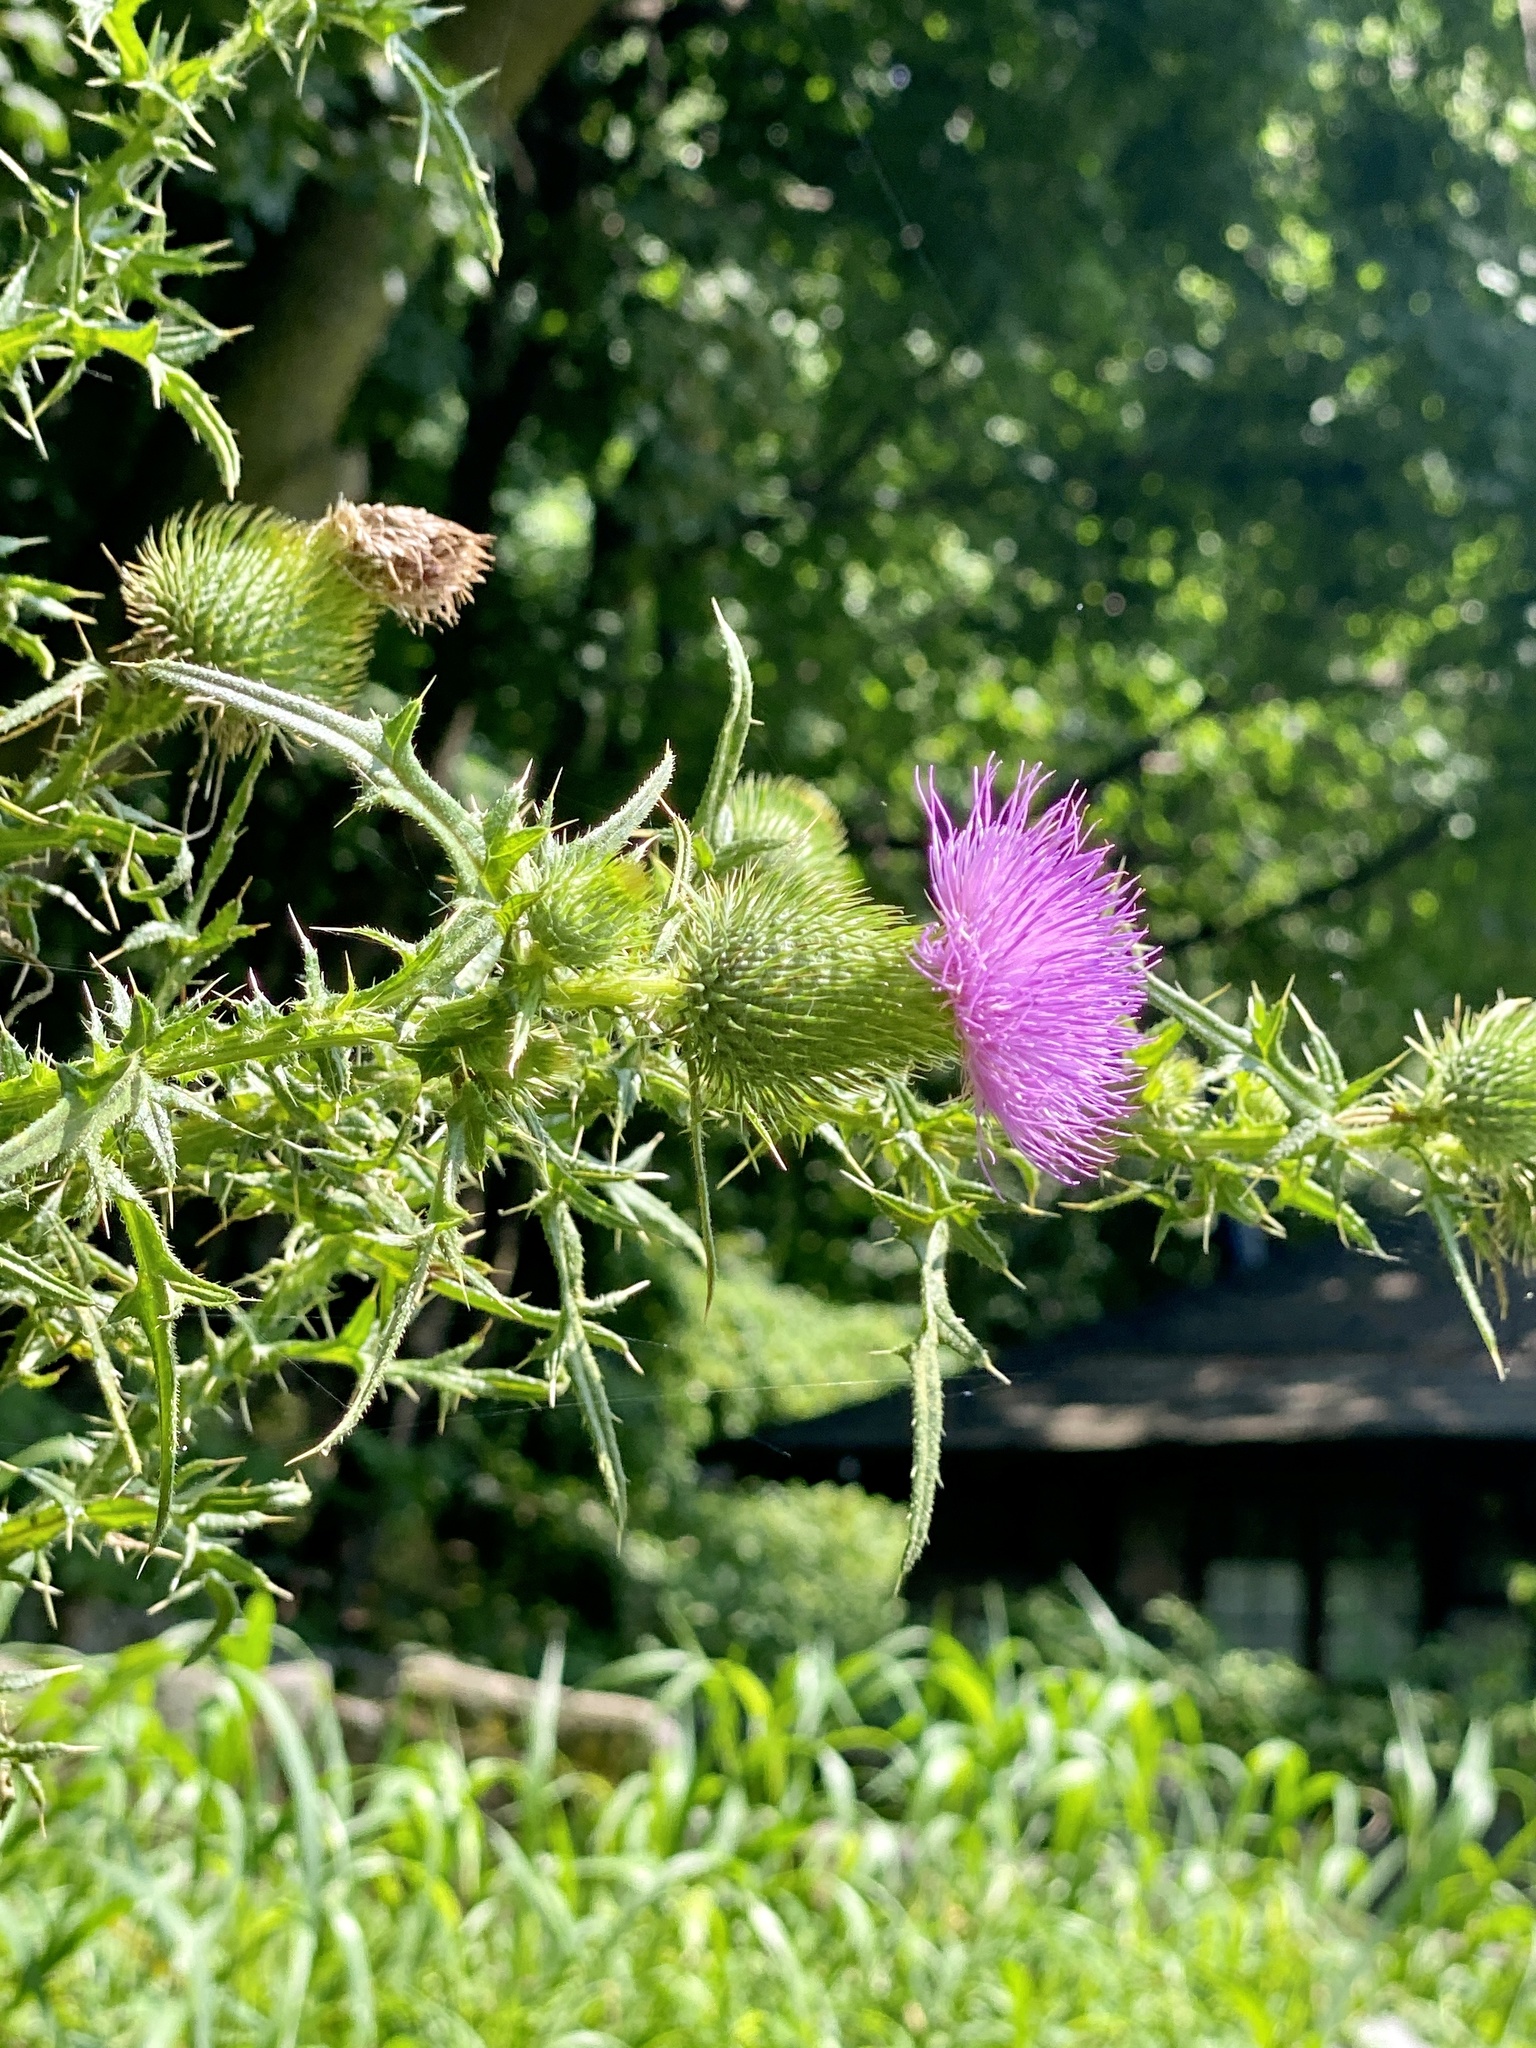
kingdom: Plantae
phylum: Tracheophyta
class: Magnoliopsida
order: Asterales
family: Asteraceae
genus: Cirsium
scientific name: Cirsium vulgare
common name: Bull thistle
